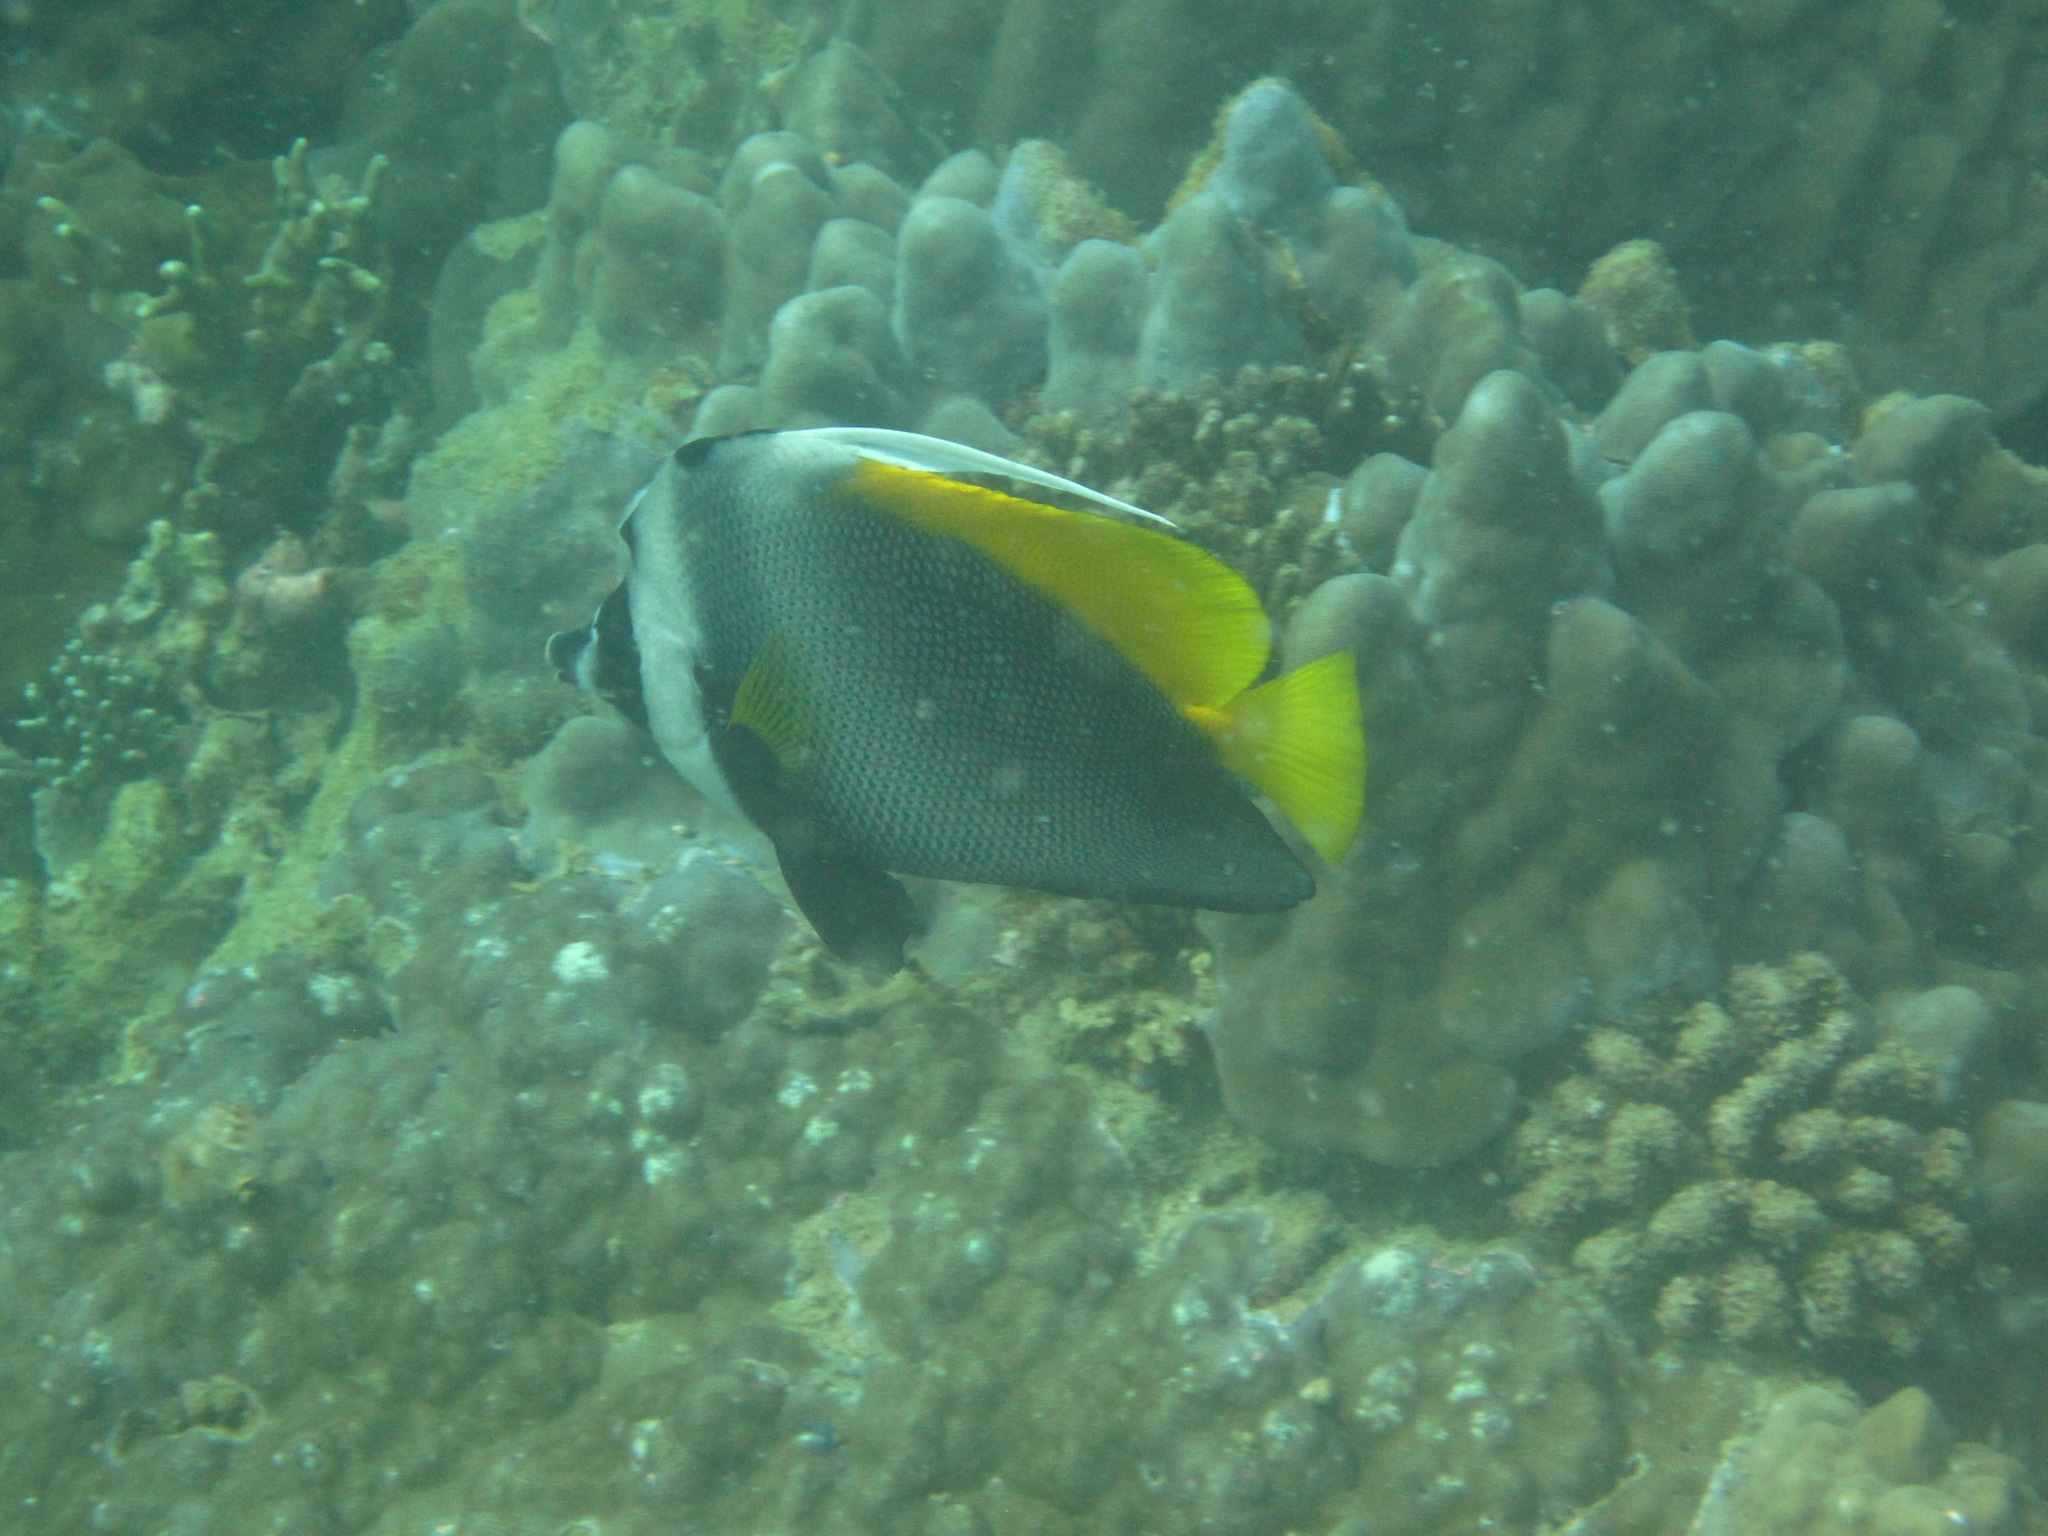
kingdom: Animalia
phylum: Chordata
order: Perciformes
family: Chaetodontidae
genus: Heniochus
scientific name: Heniochus singularius
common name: Singular bannerfish
